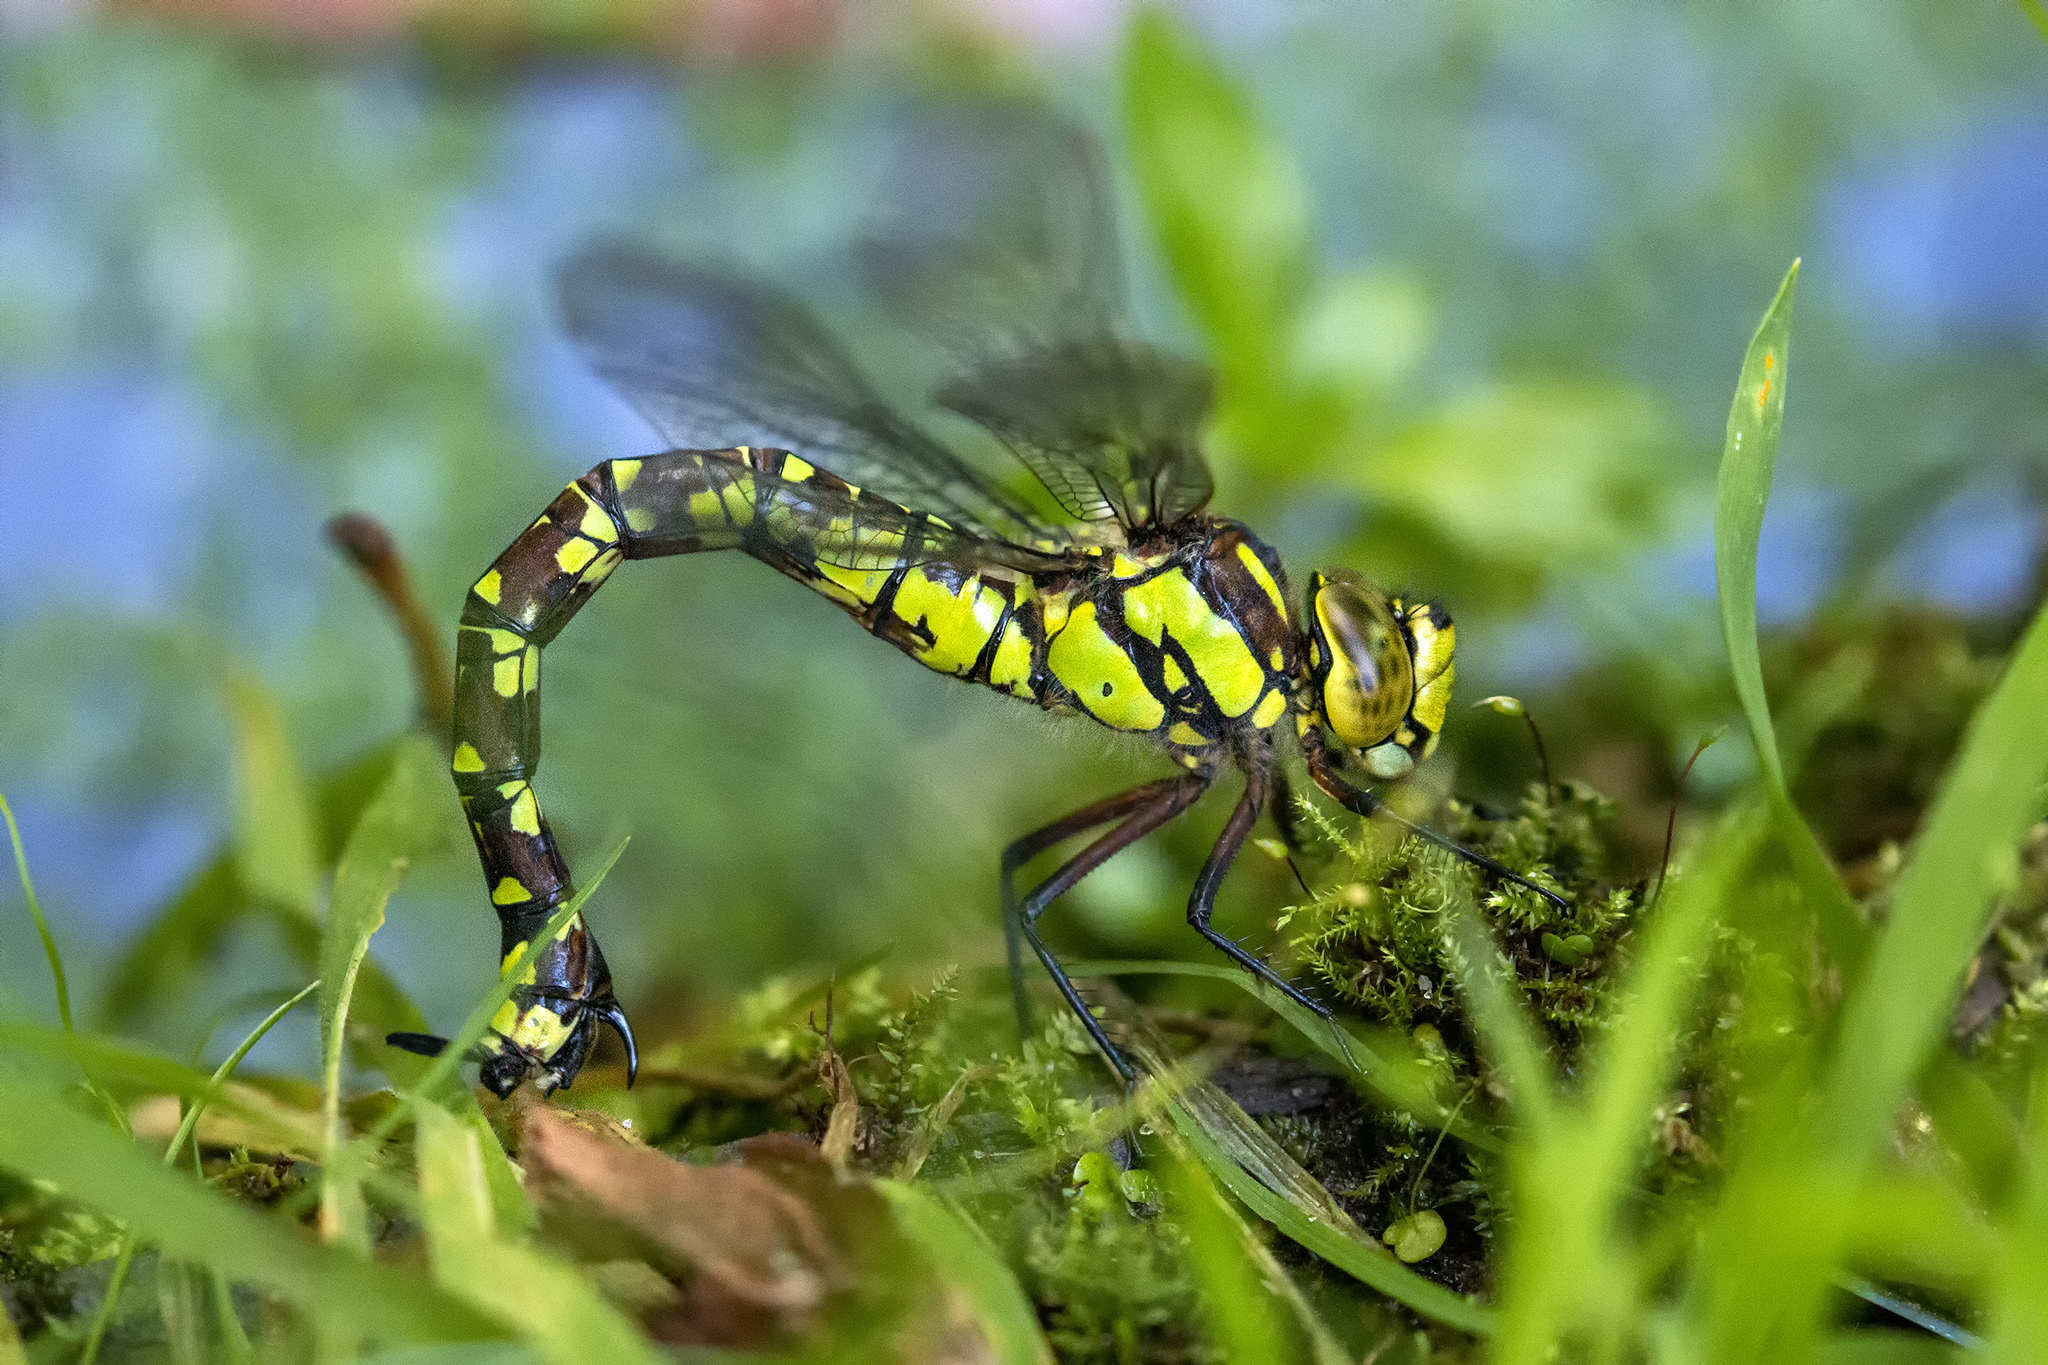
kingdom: Animalia
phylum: Arthropoda
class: Insecta
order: Odonata
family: Aeshnidae
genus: Aeshna
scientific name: Aeshna cyanea
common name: Southern hawker
